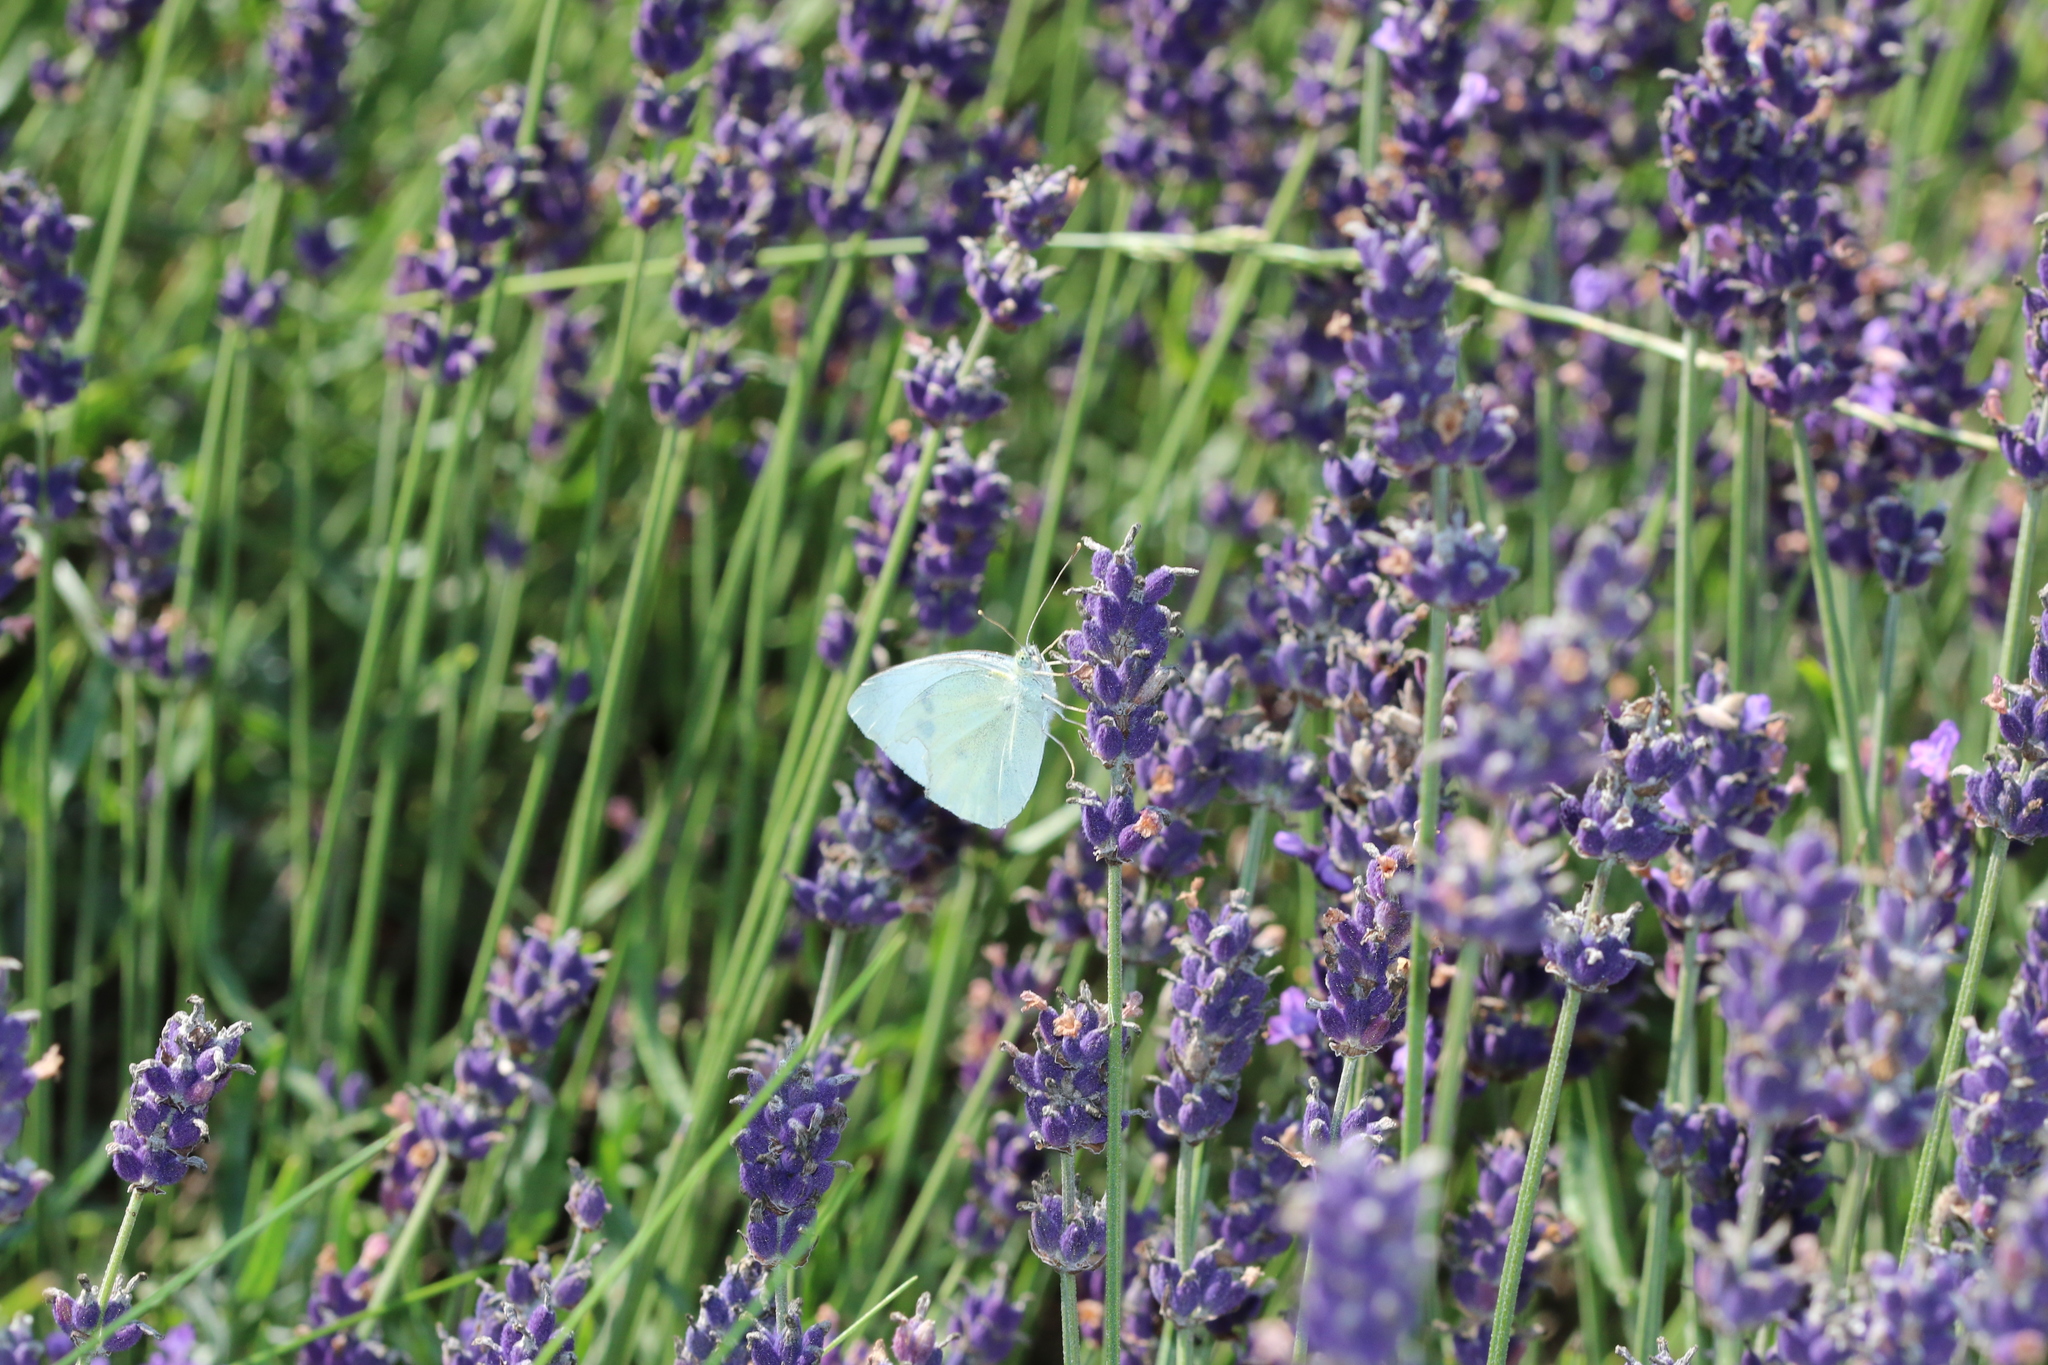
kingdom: Animalia
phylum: Arthropoda
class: Insecta
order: Lepidoptera
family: Pieridae
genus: Pieris
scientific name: Pieris rapae
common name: Small white
